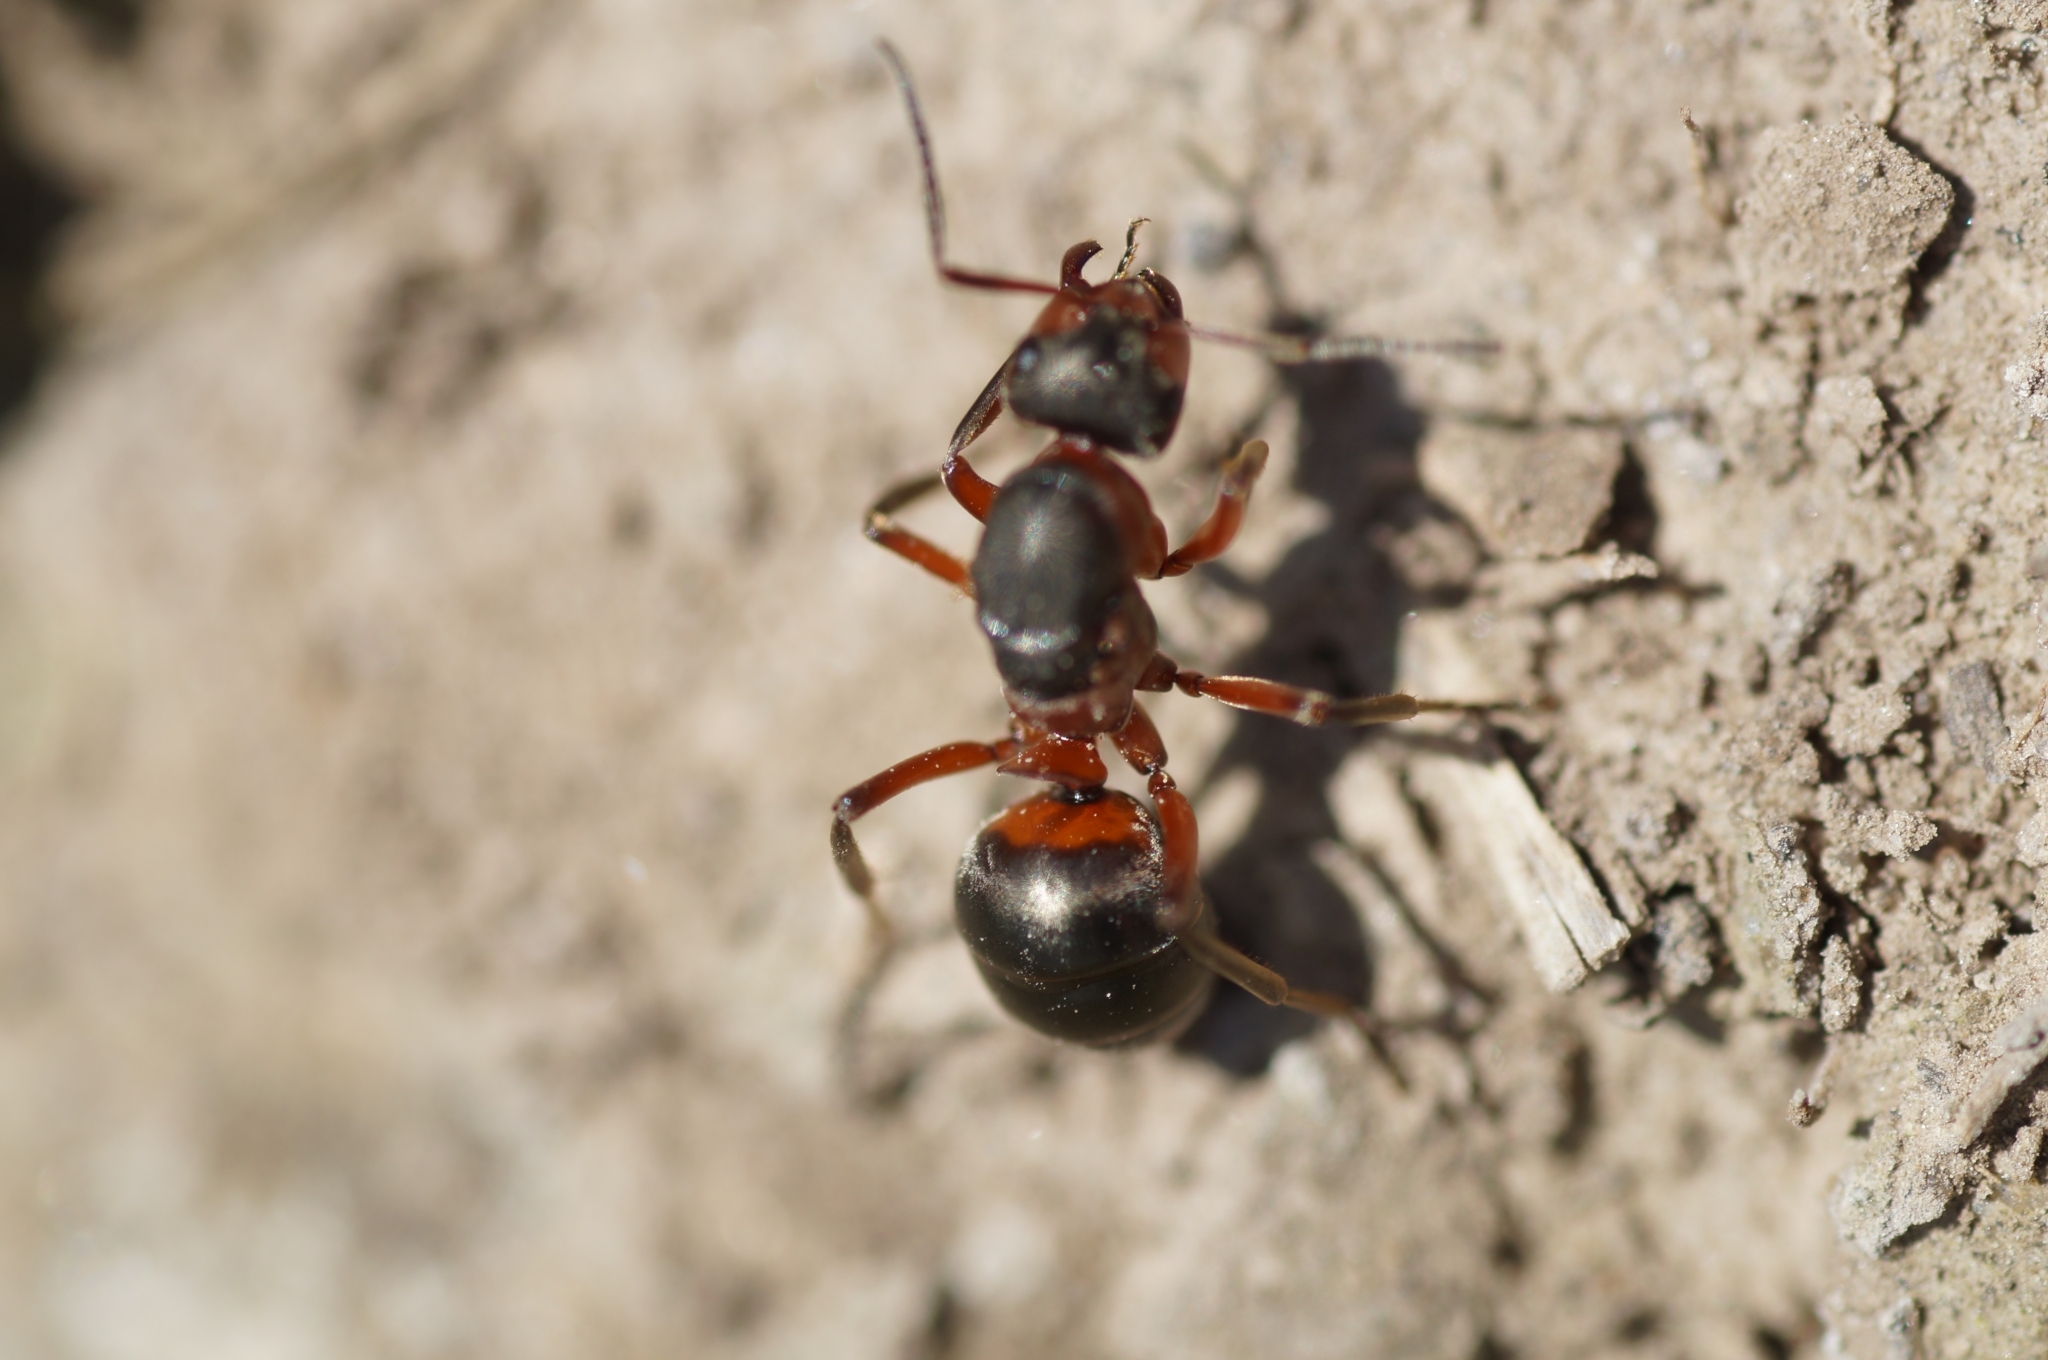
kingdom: Animalia
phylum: Arthropoda
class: Insecta
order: Hymenoptera
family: Formicidae
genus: Formica
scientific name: Formica
